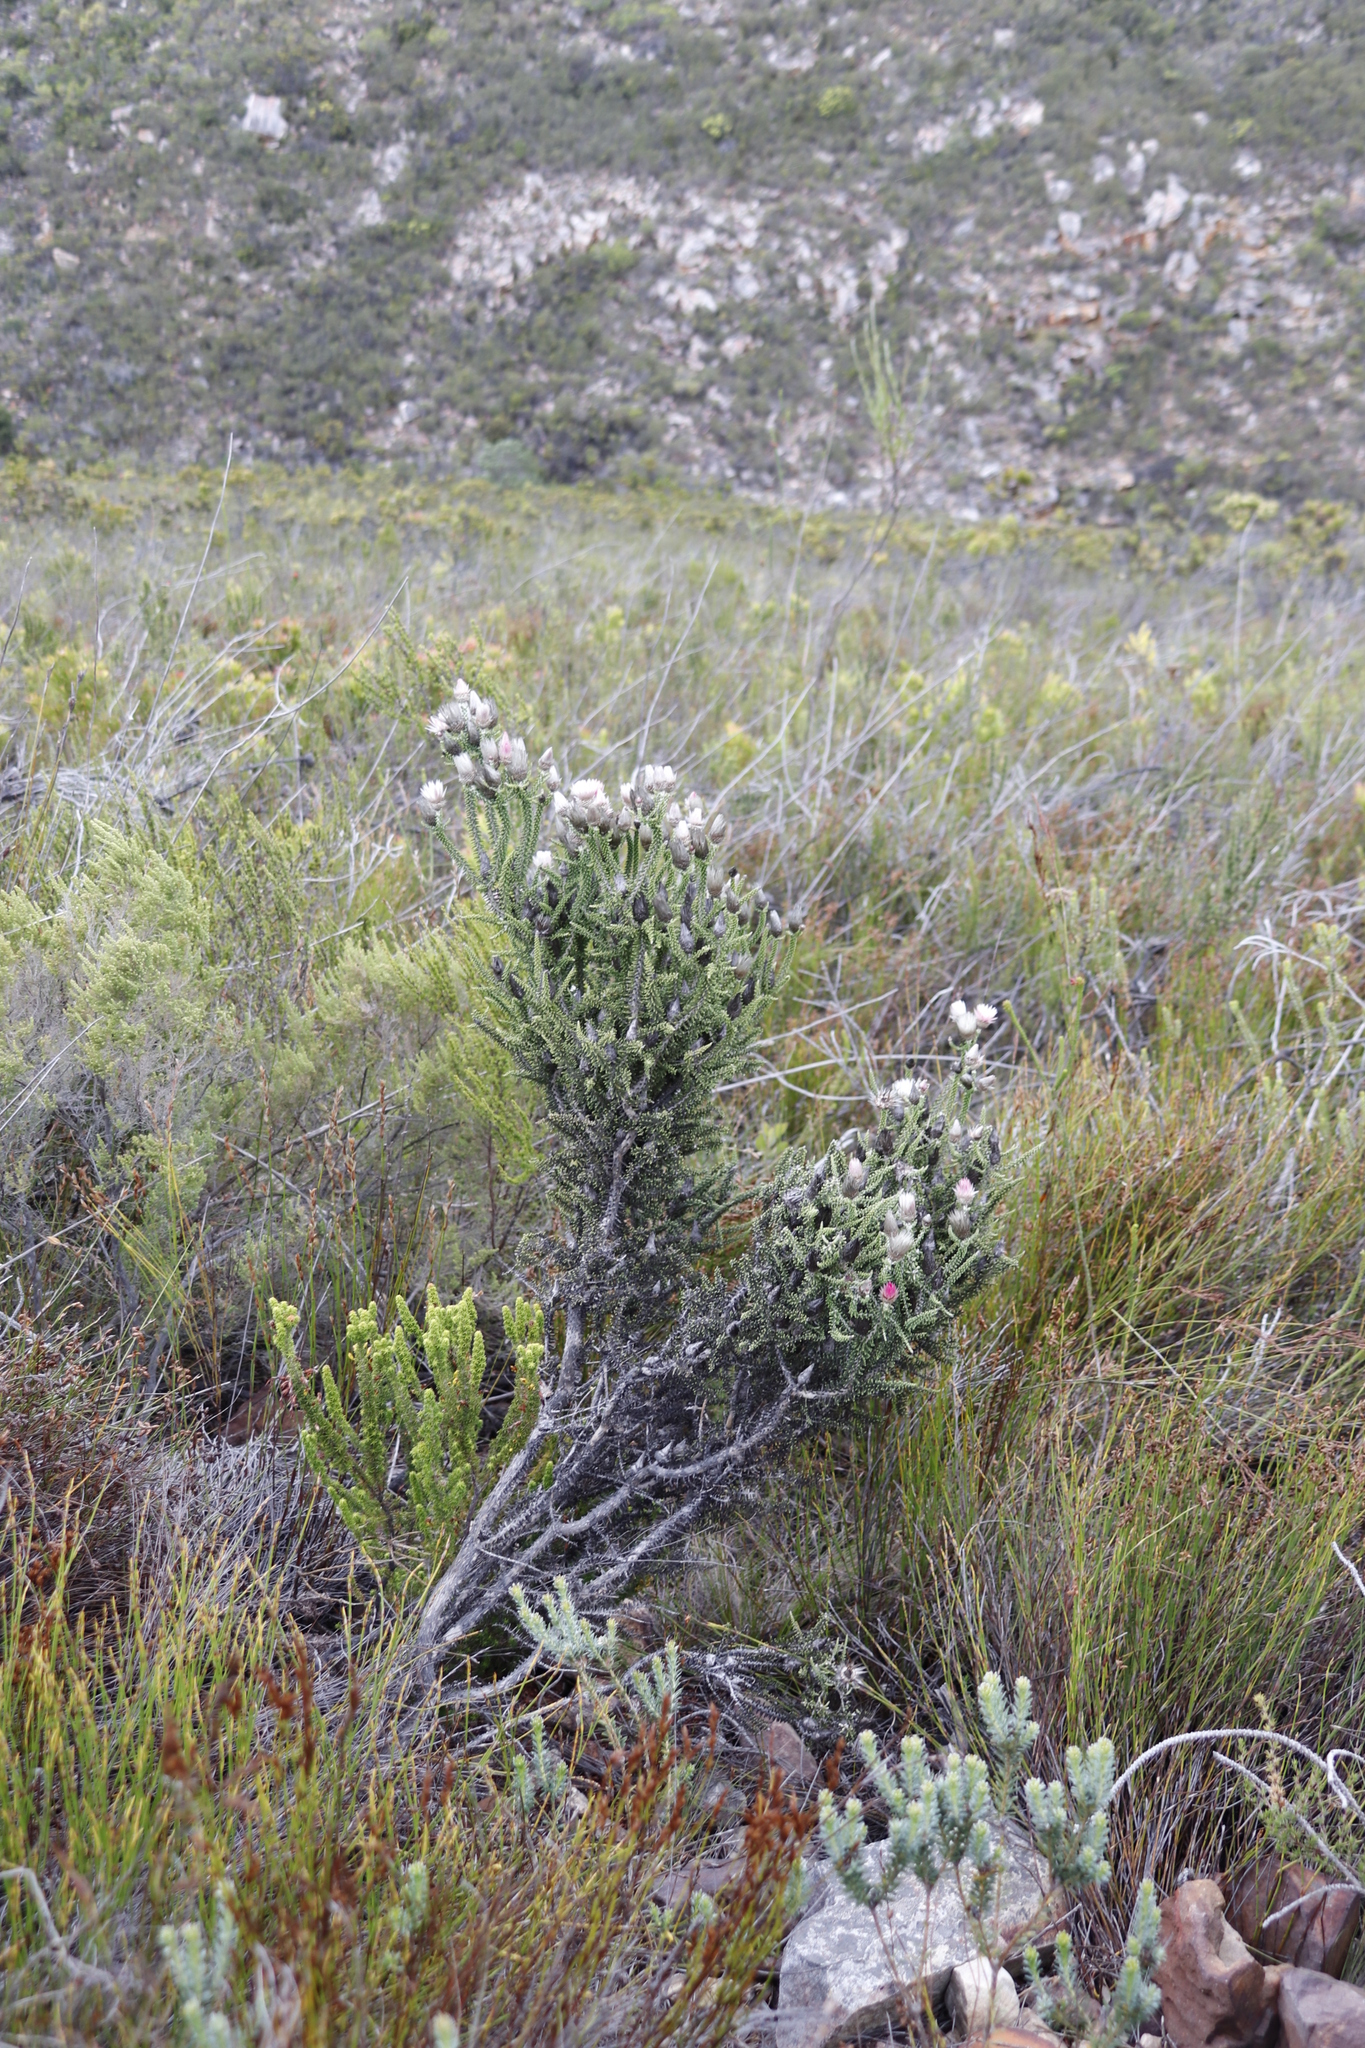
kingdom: Plantae
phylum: Tracheophyta
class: Magnoliopsida
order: Asterales
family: Asteraceae
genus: Phaenocoma
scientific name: Phaenocoma prolifera
